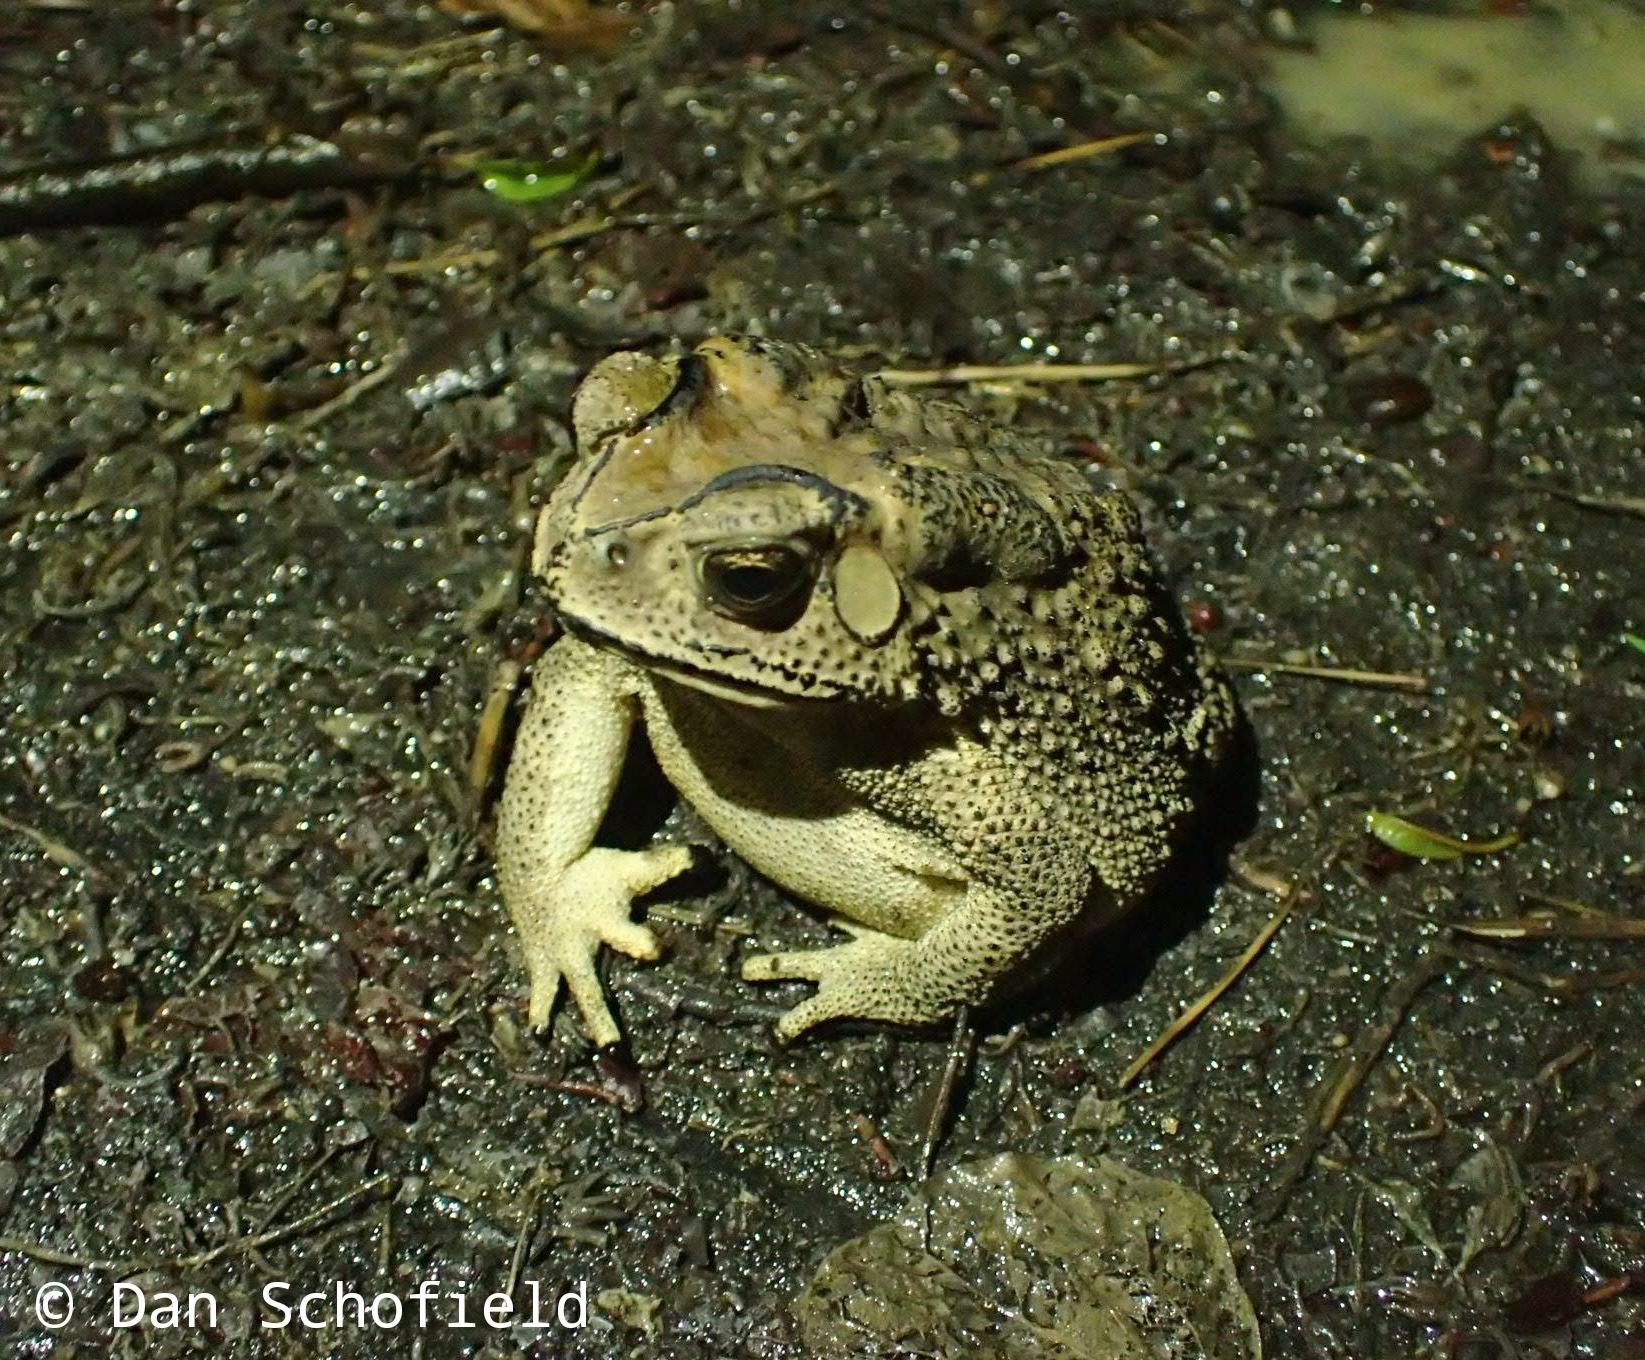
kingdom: Animalia
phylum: Chordata
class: Amphibia
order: Anura
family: Bufonidae
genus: Duttaphrynus
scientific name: Duttaphrynus melanostictus
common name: Common sunda toad
